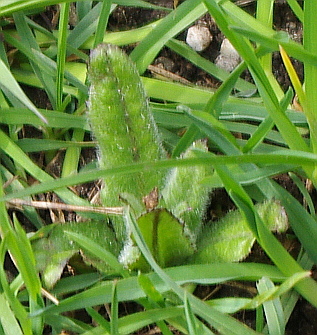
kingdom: Plantae
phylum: Tracheophyta
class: Magnoliopsida
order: Asterales
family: Asteraceae
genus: Cirsium
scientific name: Cirsium arvense
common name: Creeping thistle
